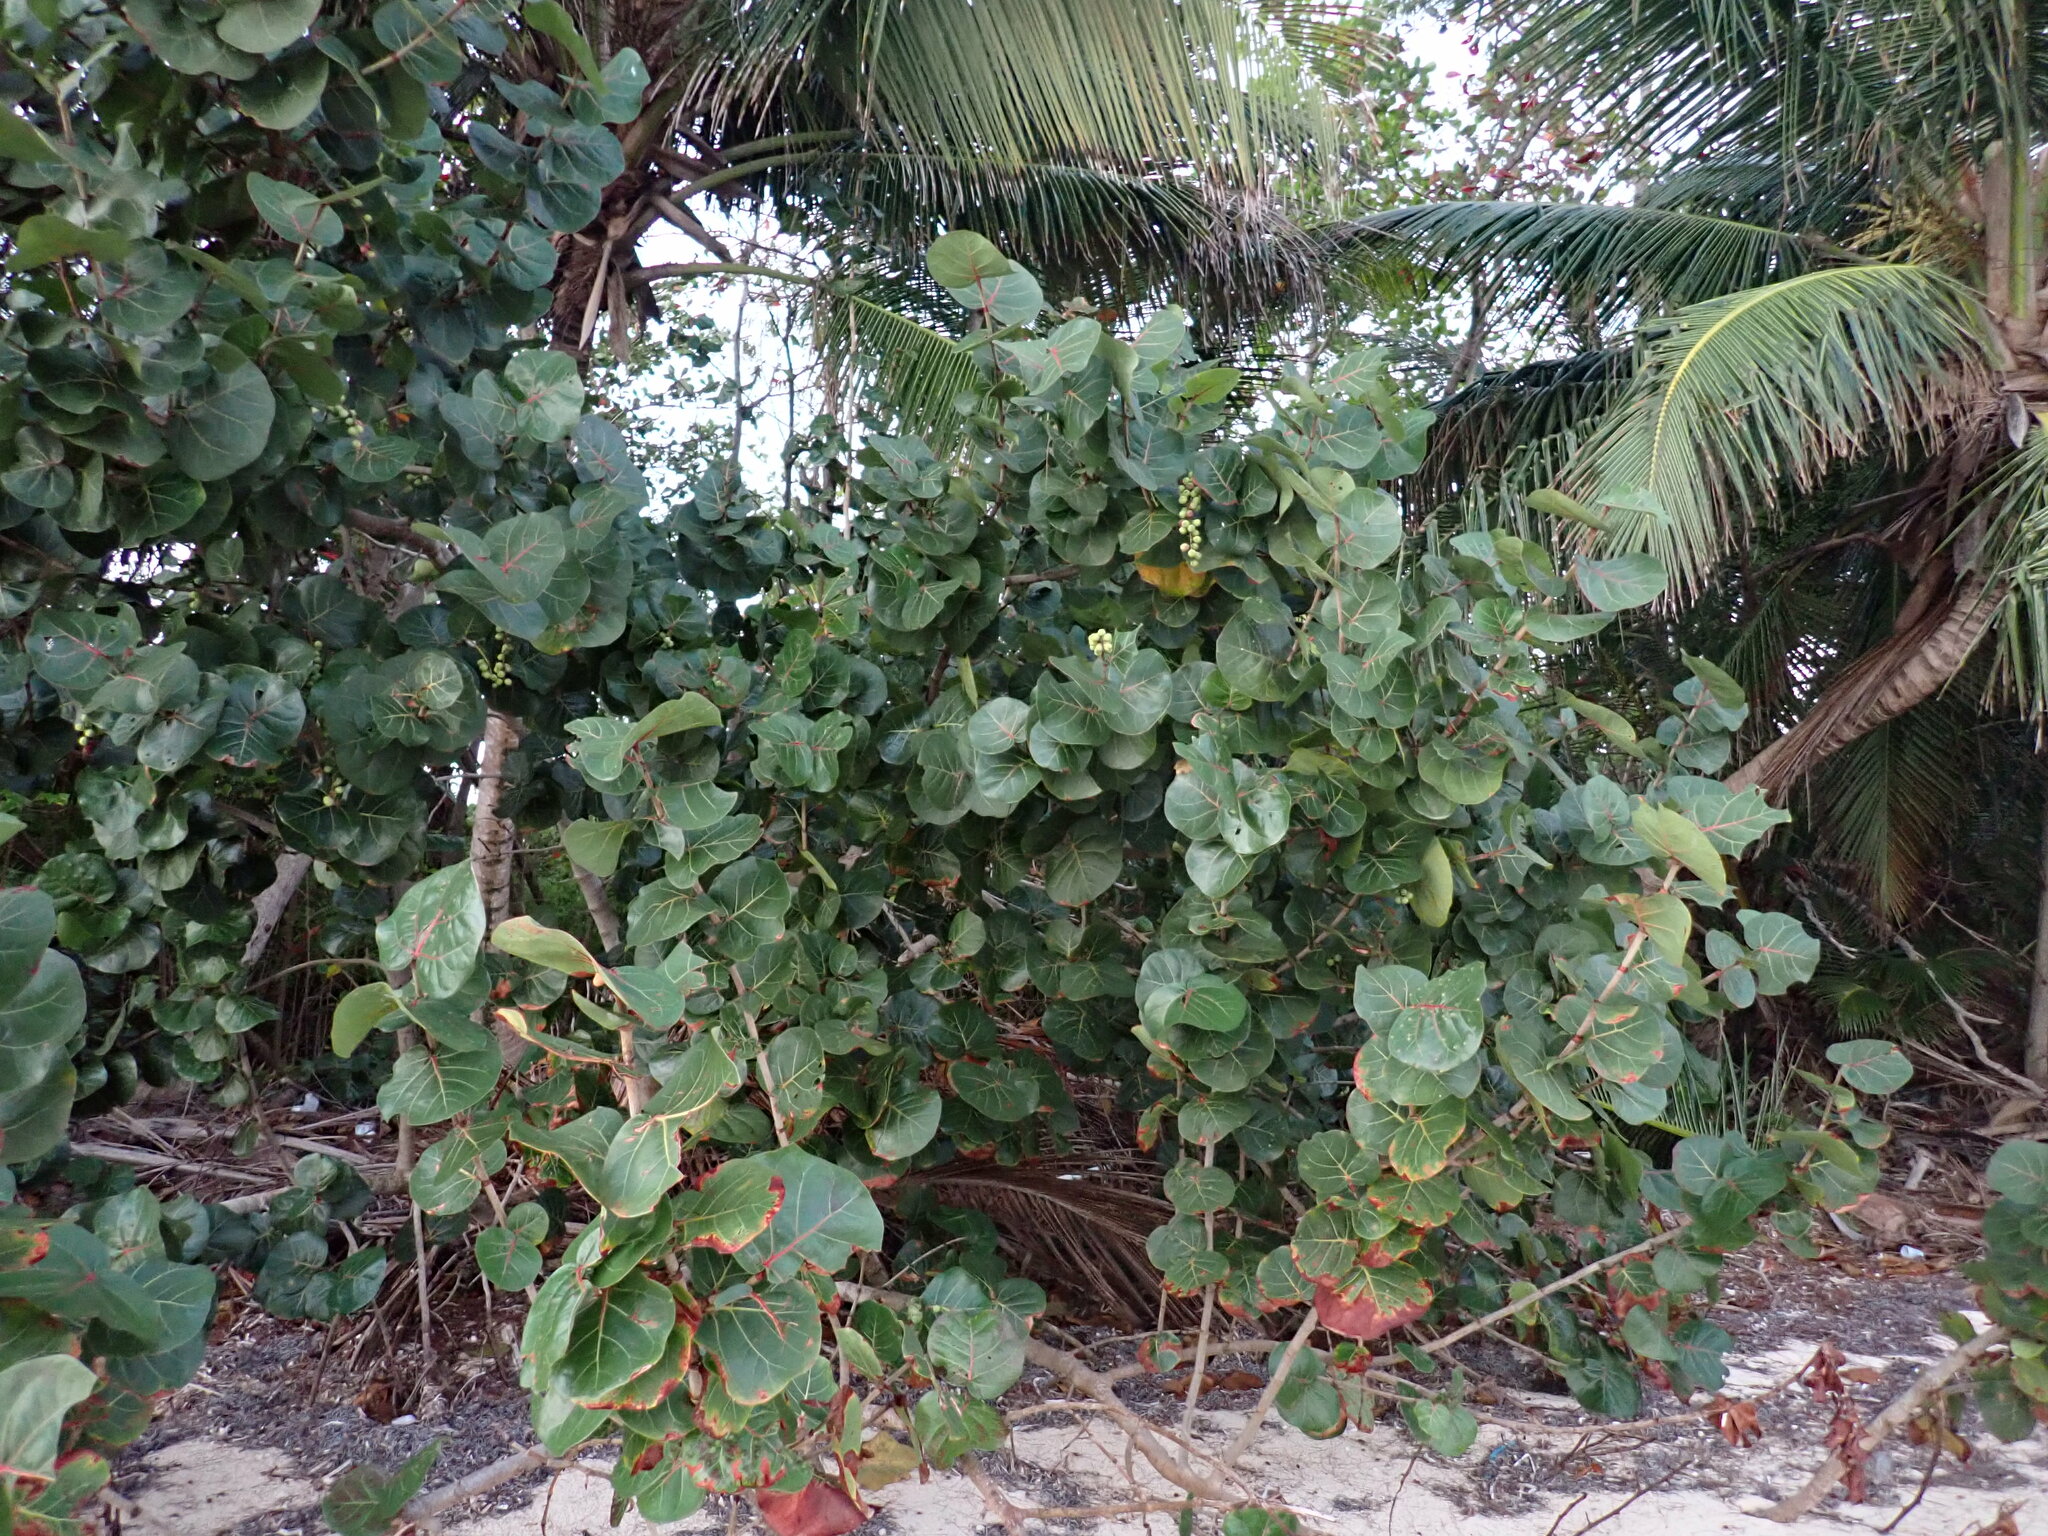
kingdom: Plantae
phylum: Tracheophyta
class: Magnoliopsida
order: Caryophyllales
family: Polygonaceae
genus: Coccoloba
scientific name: Coccoloba uvifera
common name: Seagrape
